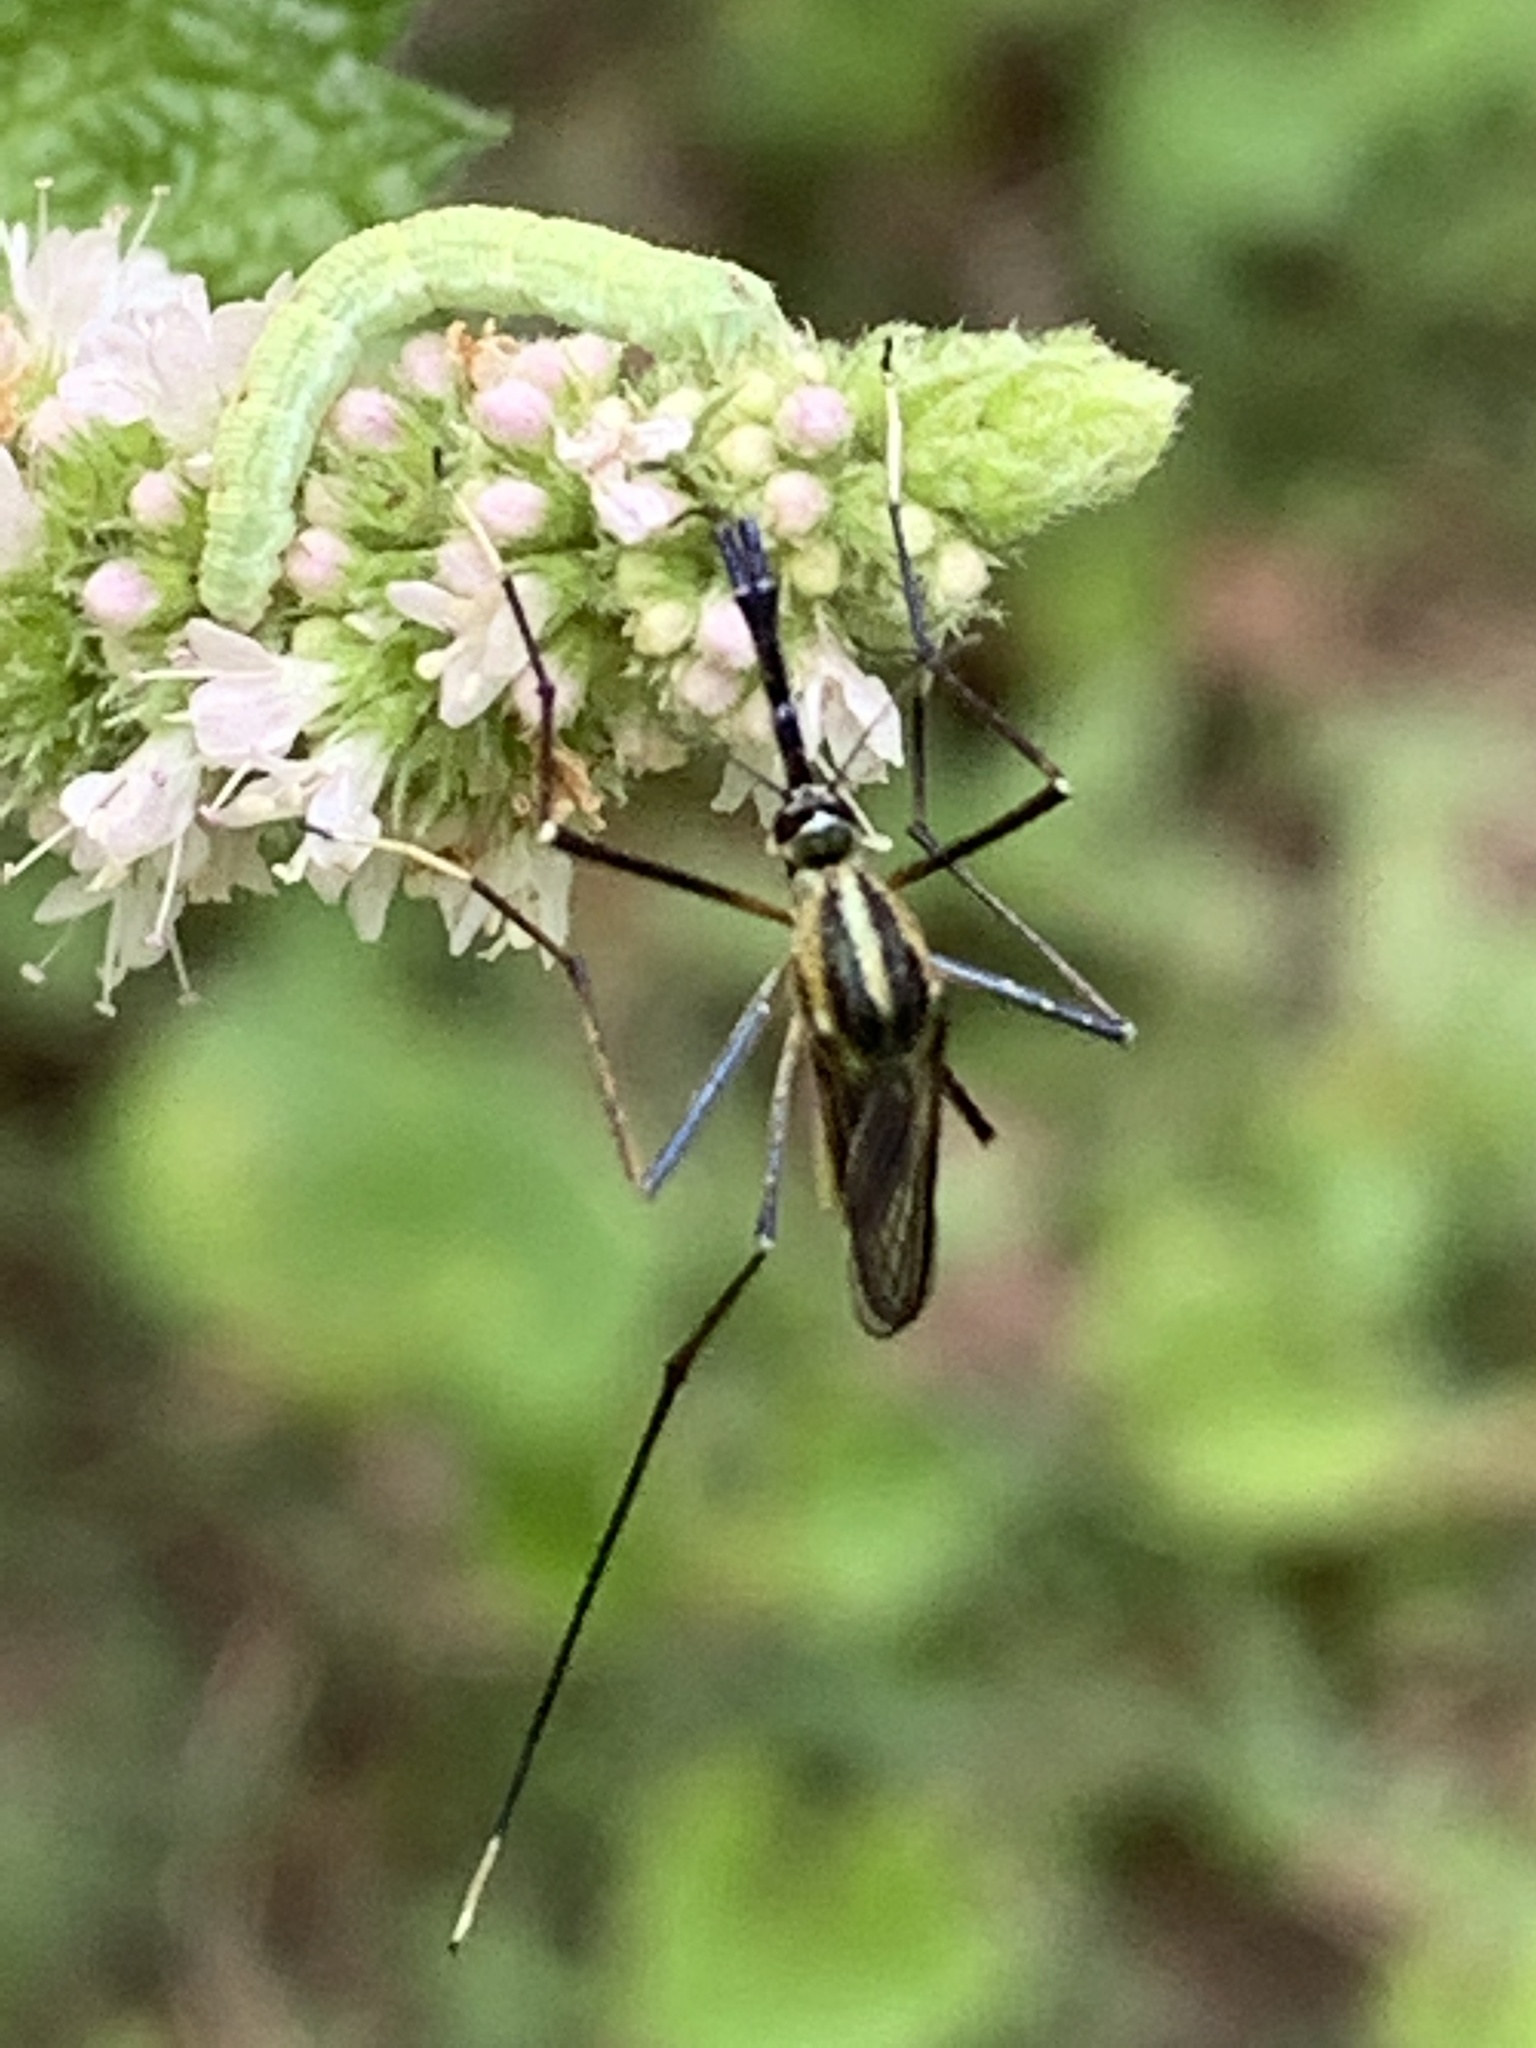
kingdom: Animalia
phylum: Arthropoda
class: Insecta
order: Diptera
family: Culicidae
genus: Toxorhynchites
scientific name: Toxorhynchites rutilus
